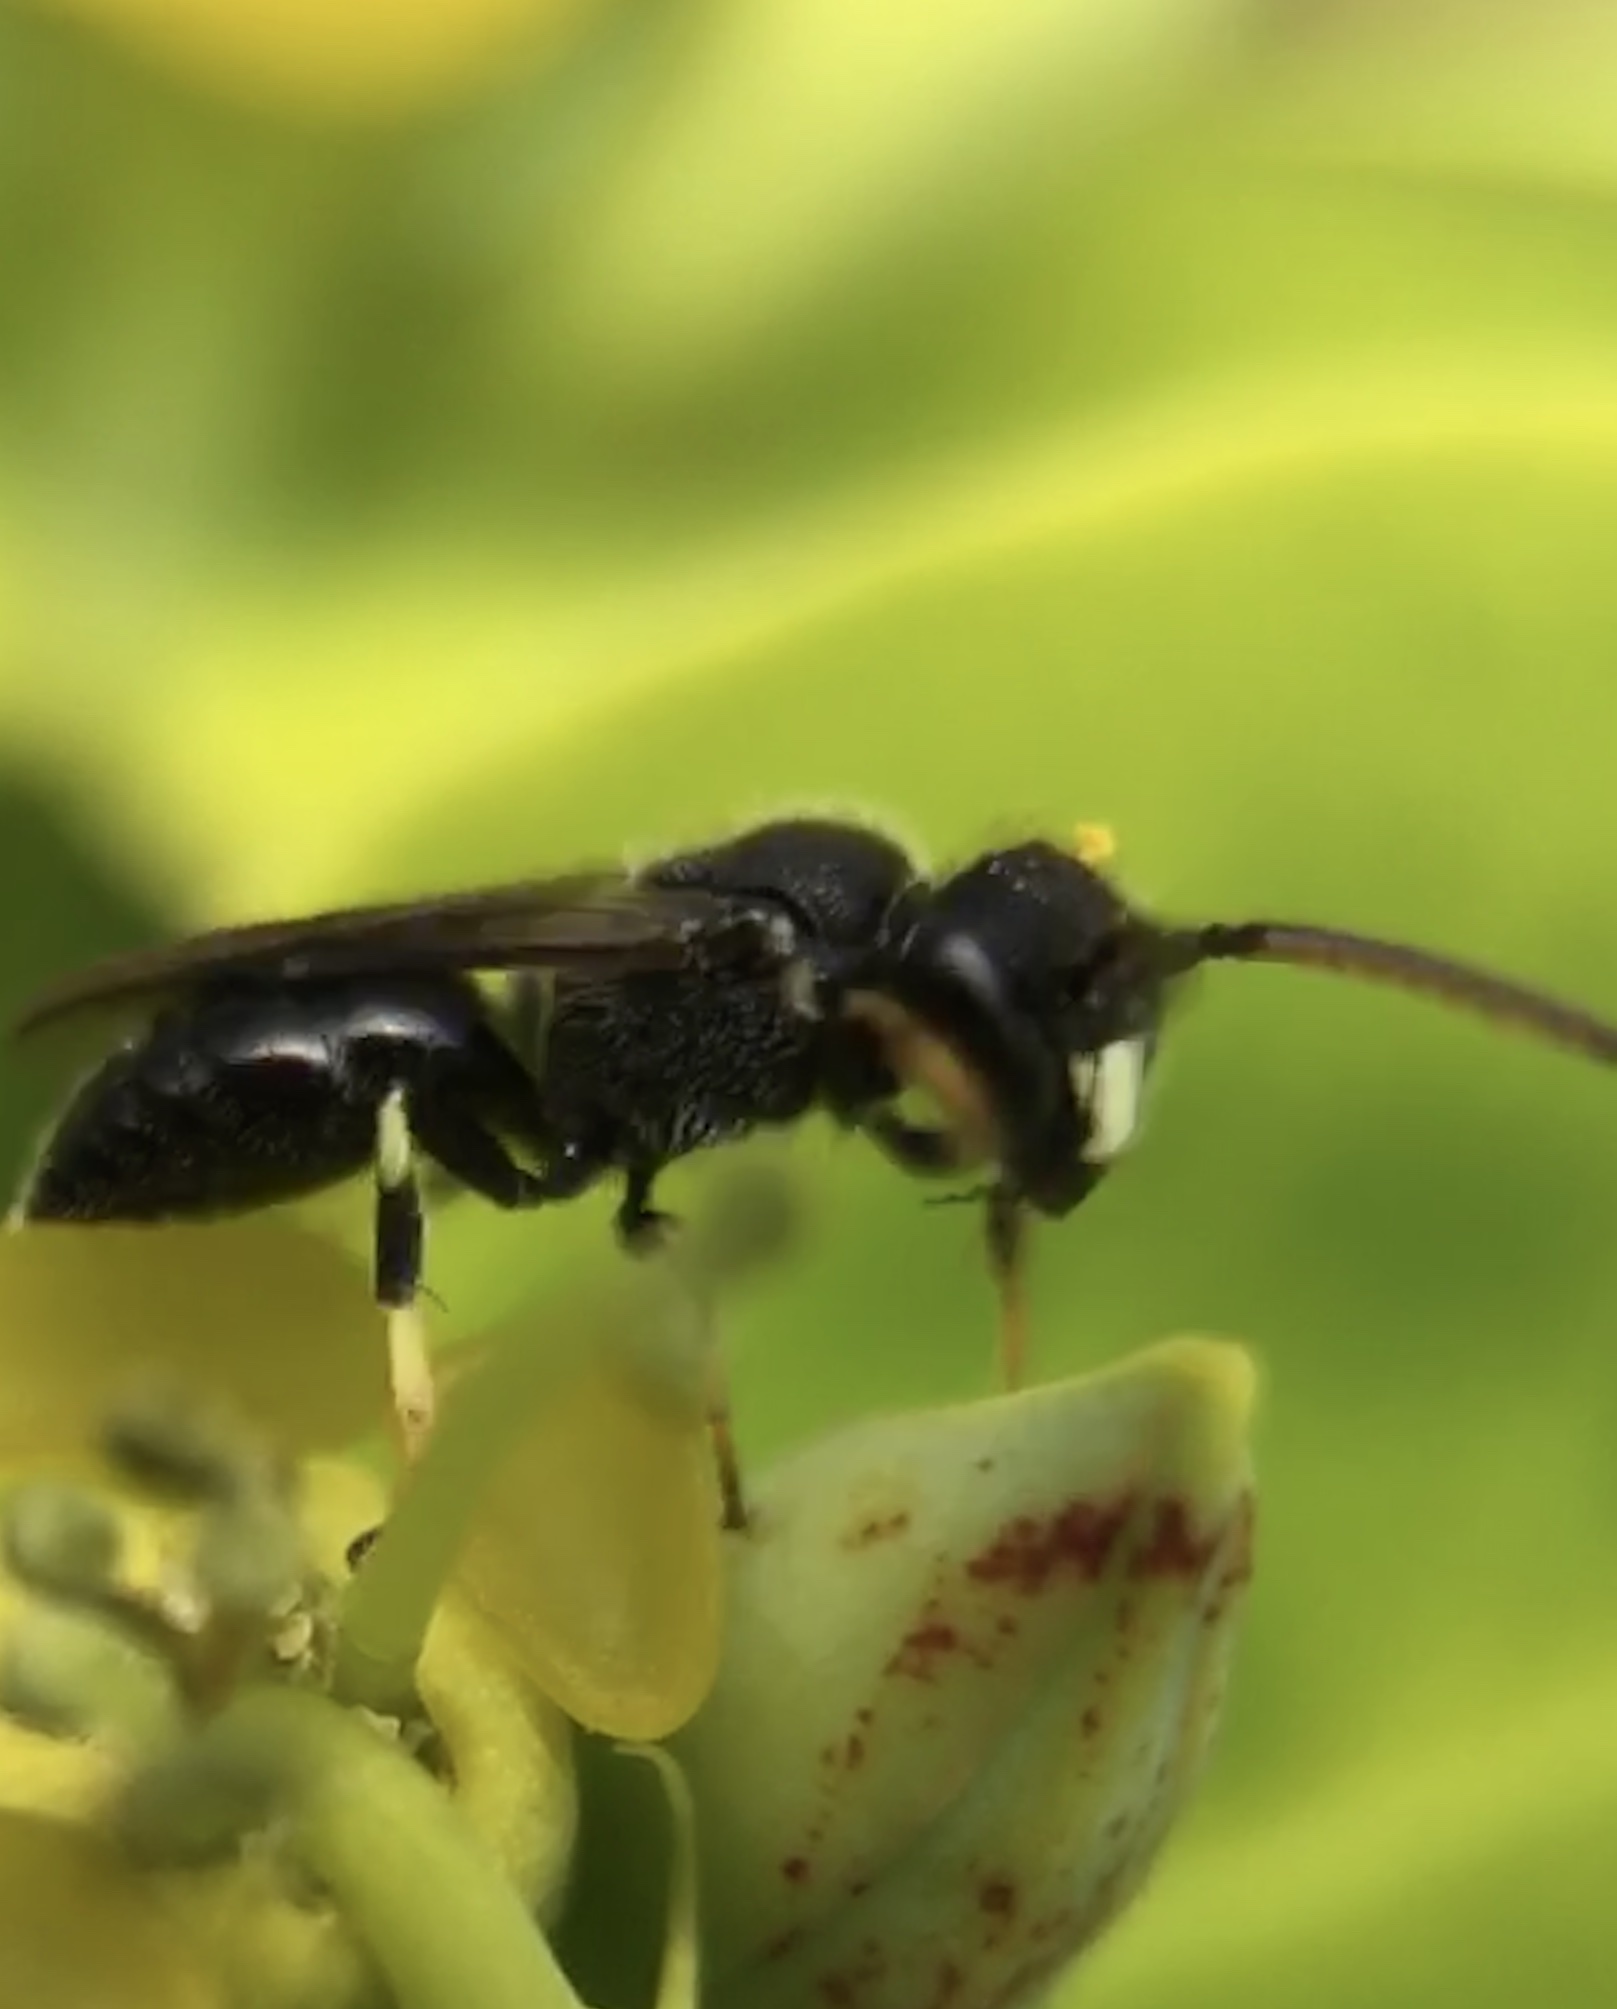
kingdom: Animalia
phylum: Arthropoda
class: Insecta
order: Hymenoptera
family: Colletidae
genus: Hylaeus
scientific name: Hylaeus punctatus
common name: Punctate masked bee
